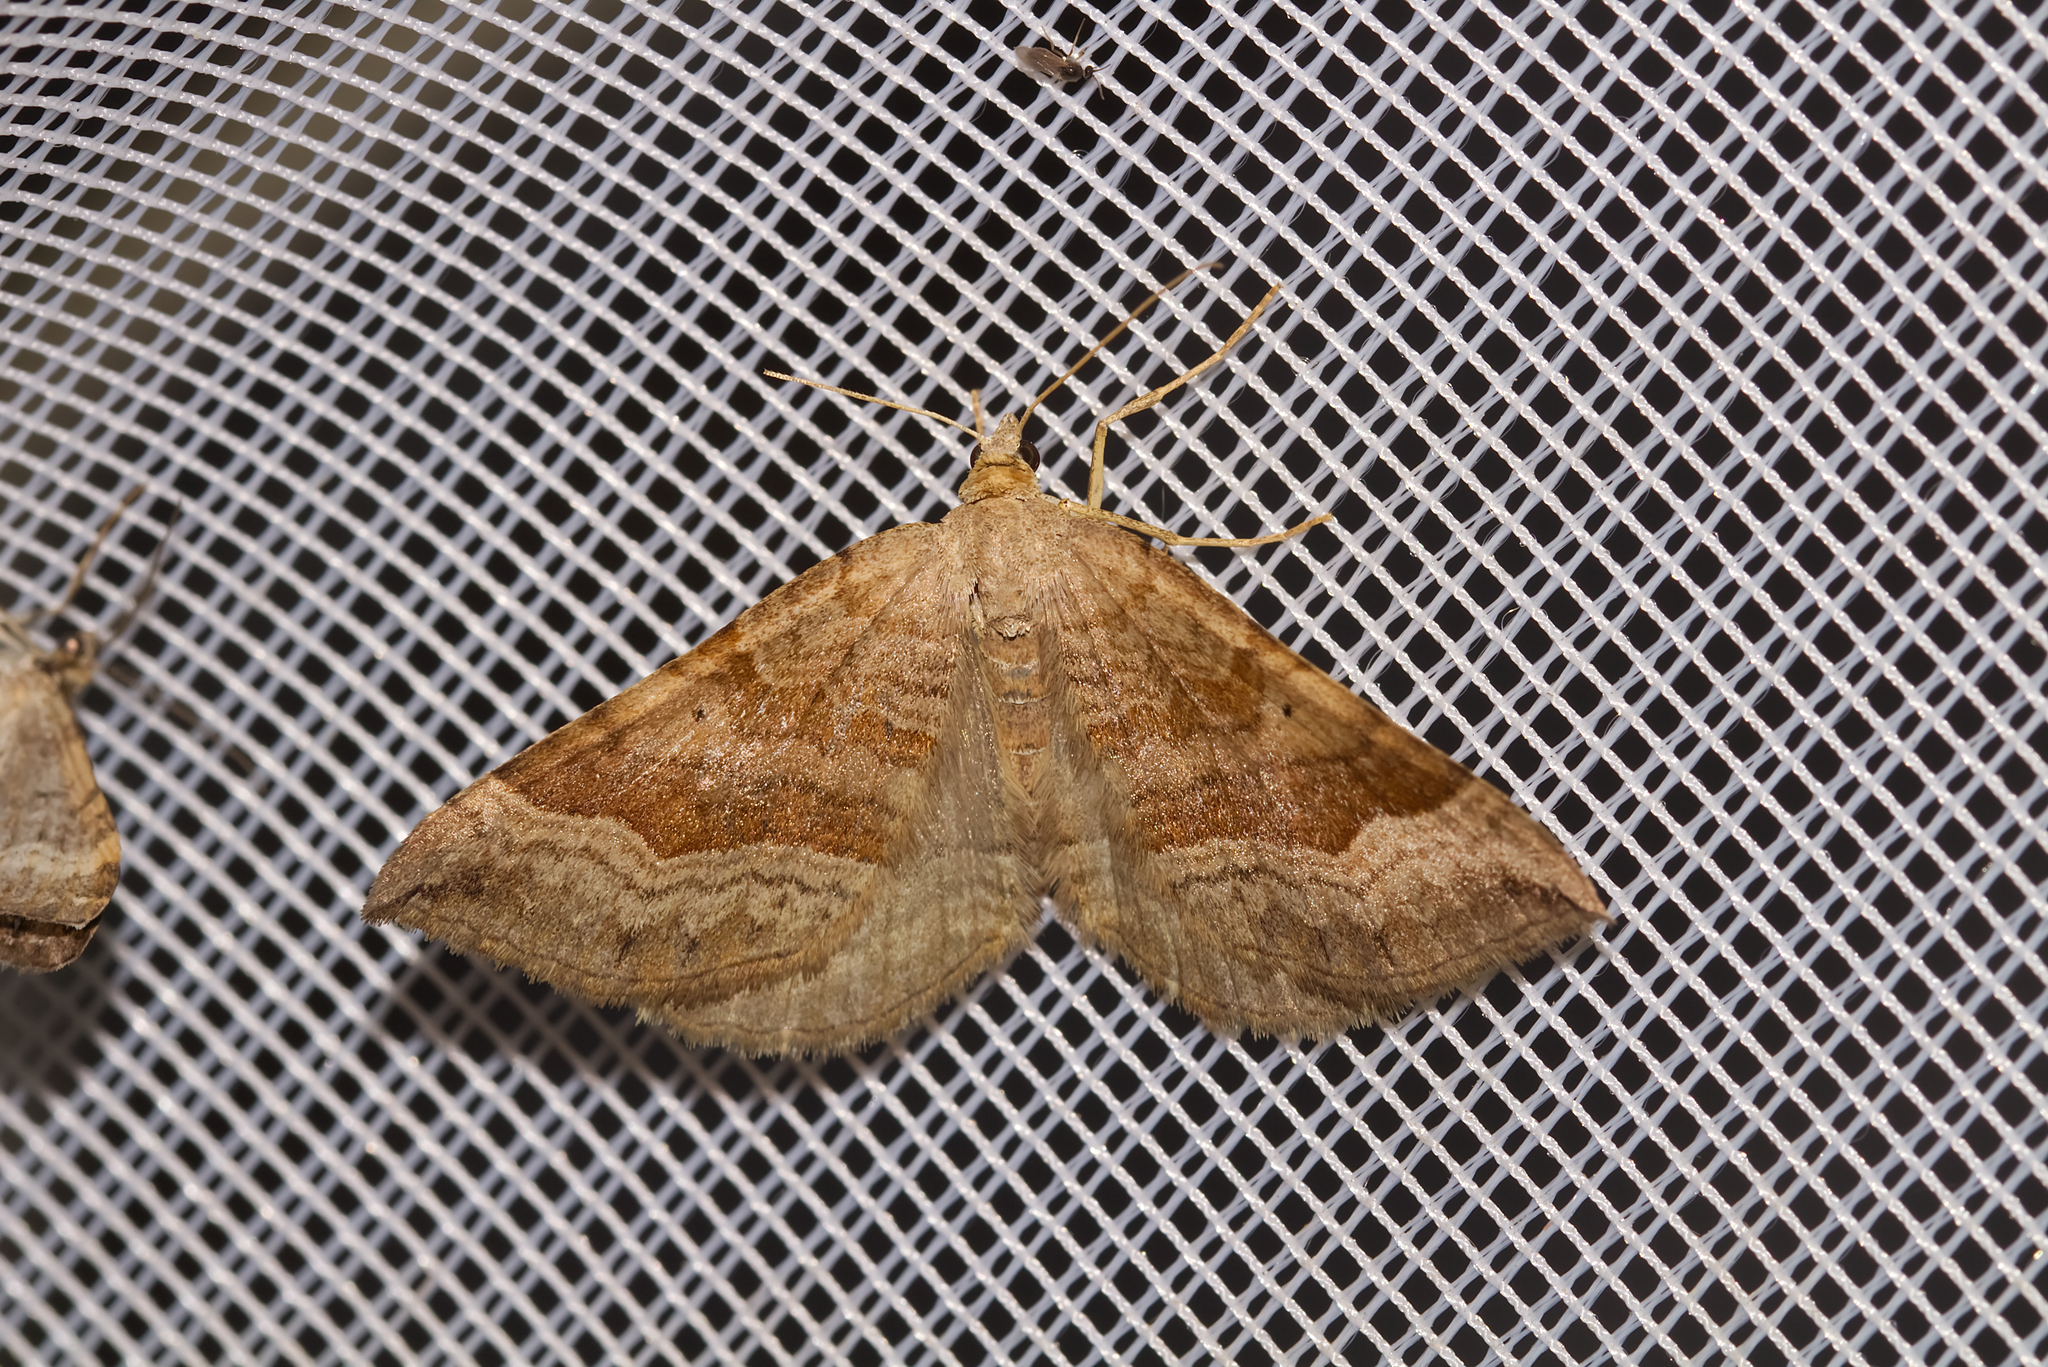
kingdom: Animalia
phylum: Arthropoda
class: Insecta
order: Lepidoptera
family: Geometridae
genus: Scotopteryx
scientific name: Scotopteryx chenopodiata
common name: Shaded broad-bar
